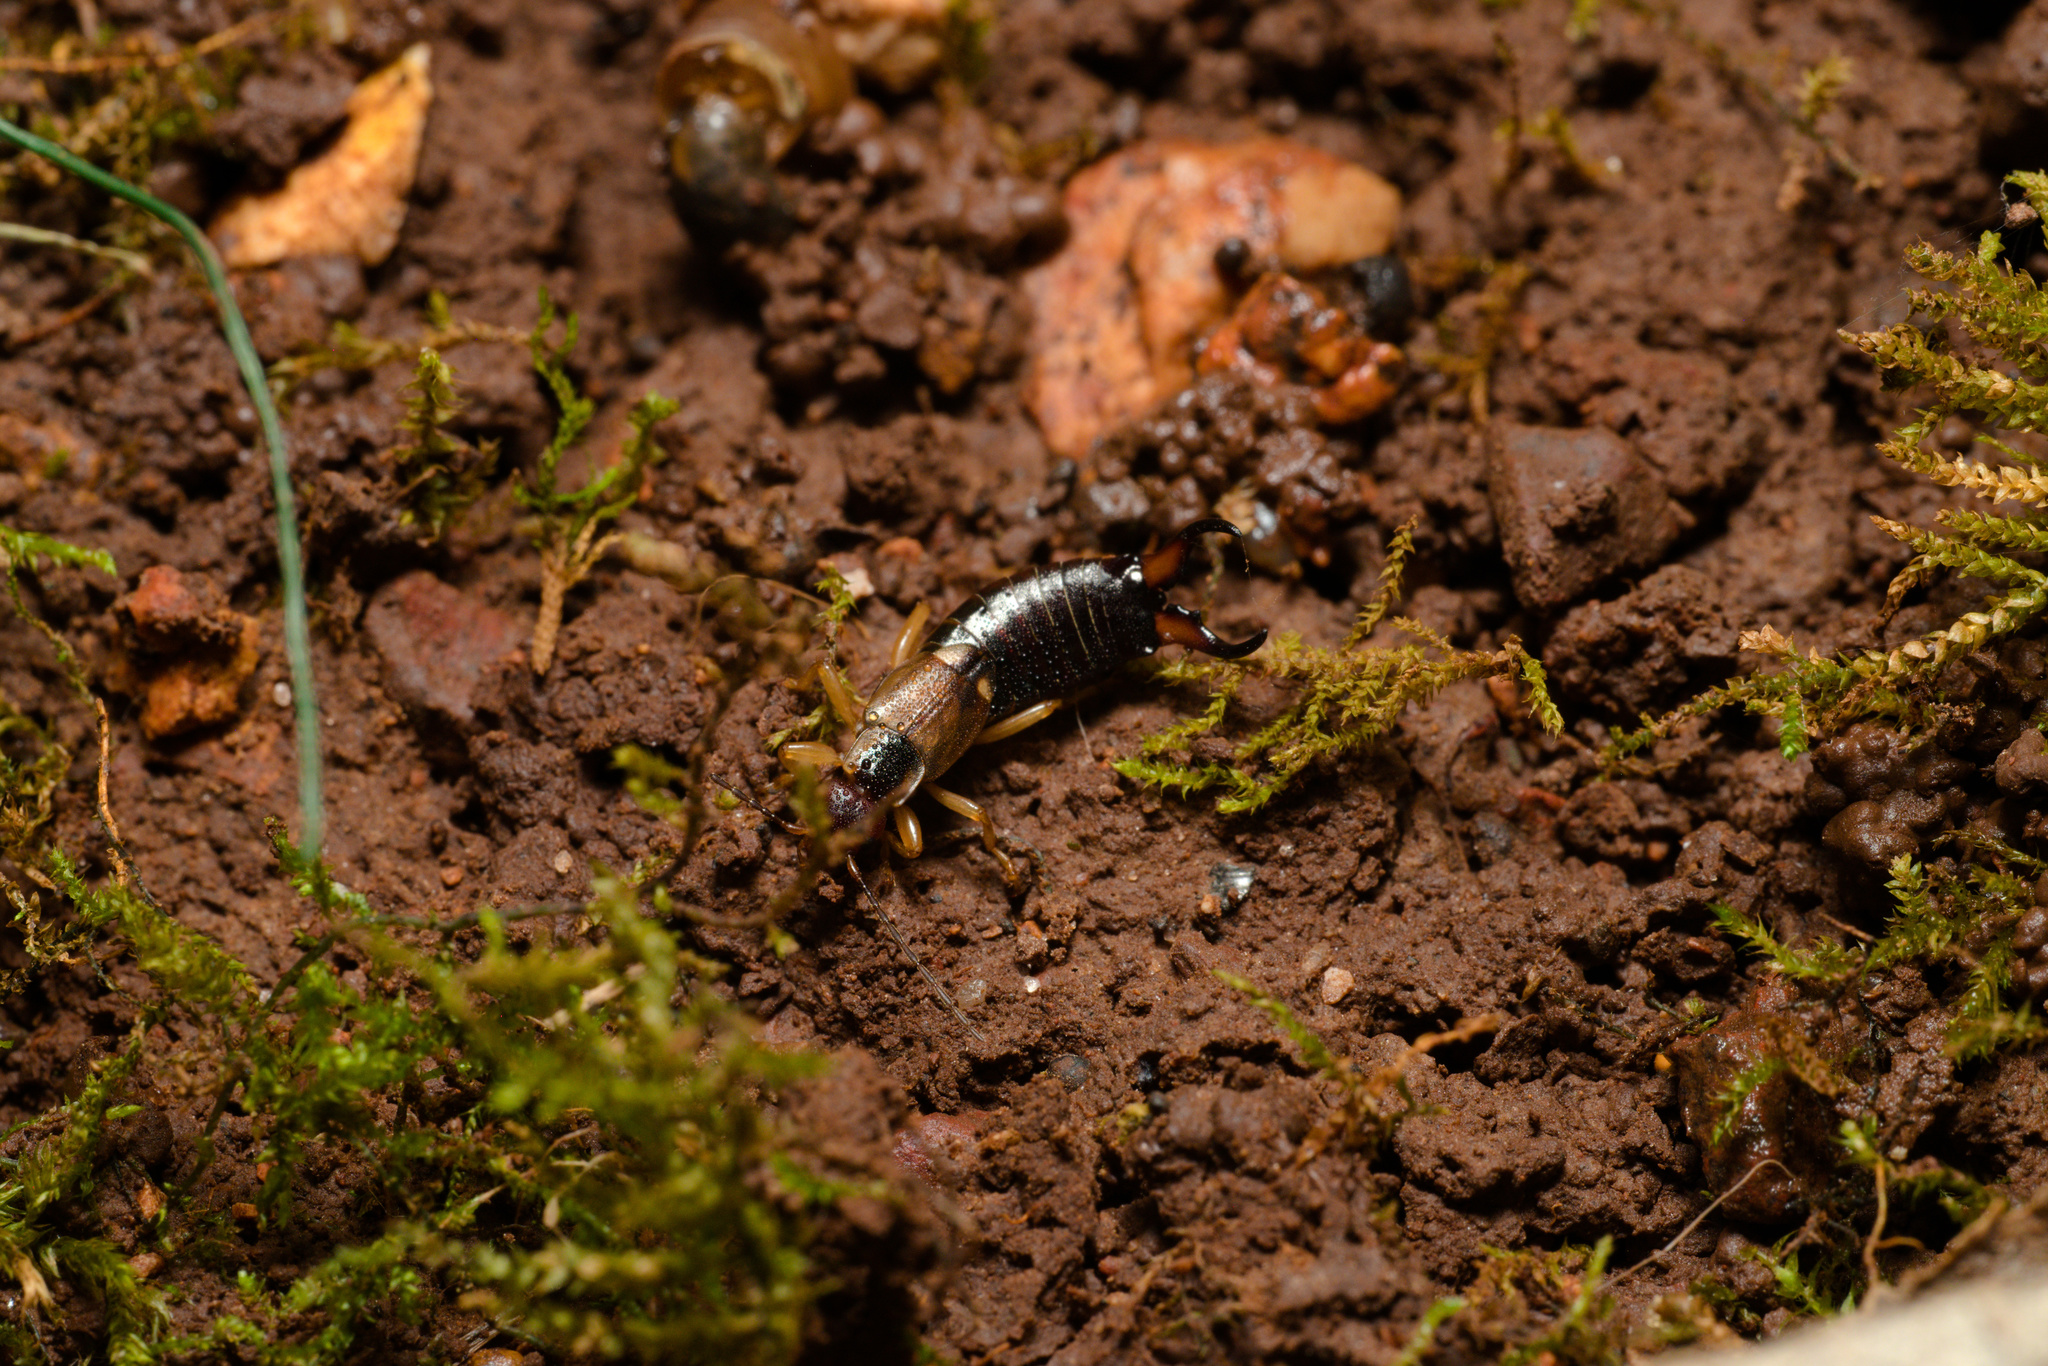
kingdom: Animalia
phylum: Arthropoda
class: Insecta
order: Dermaptera
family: Forficulidae
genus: Forficula
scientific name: Forficula
